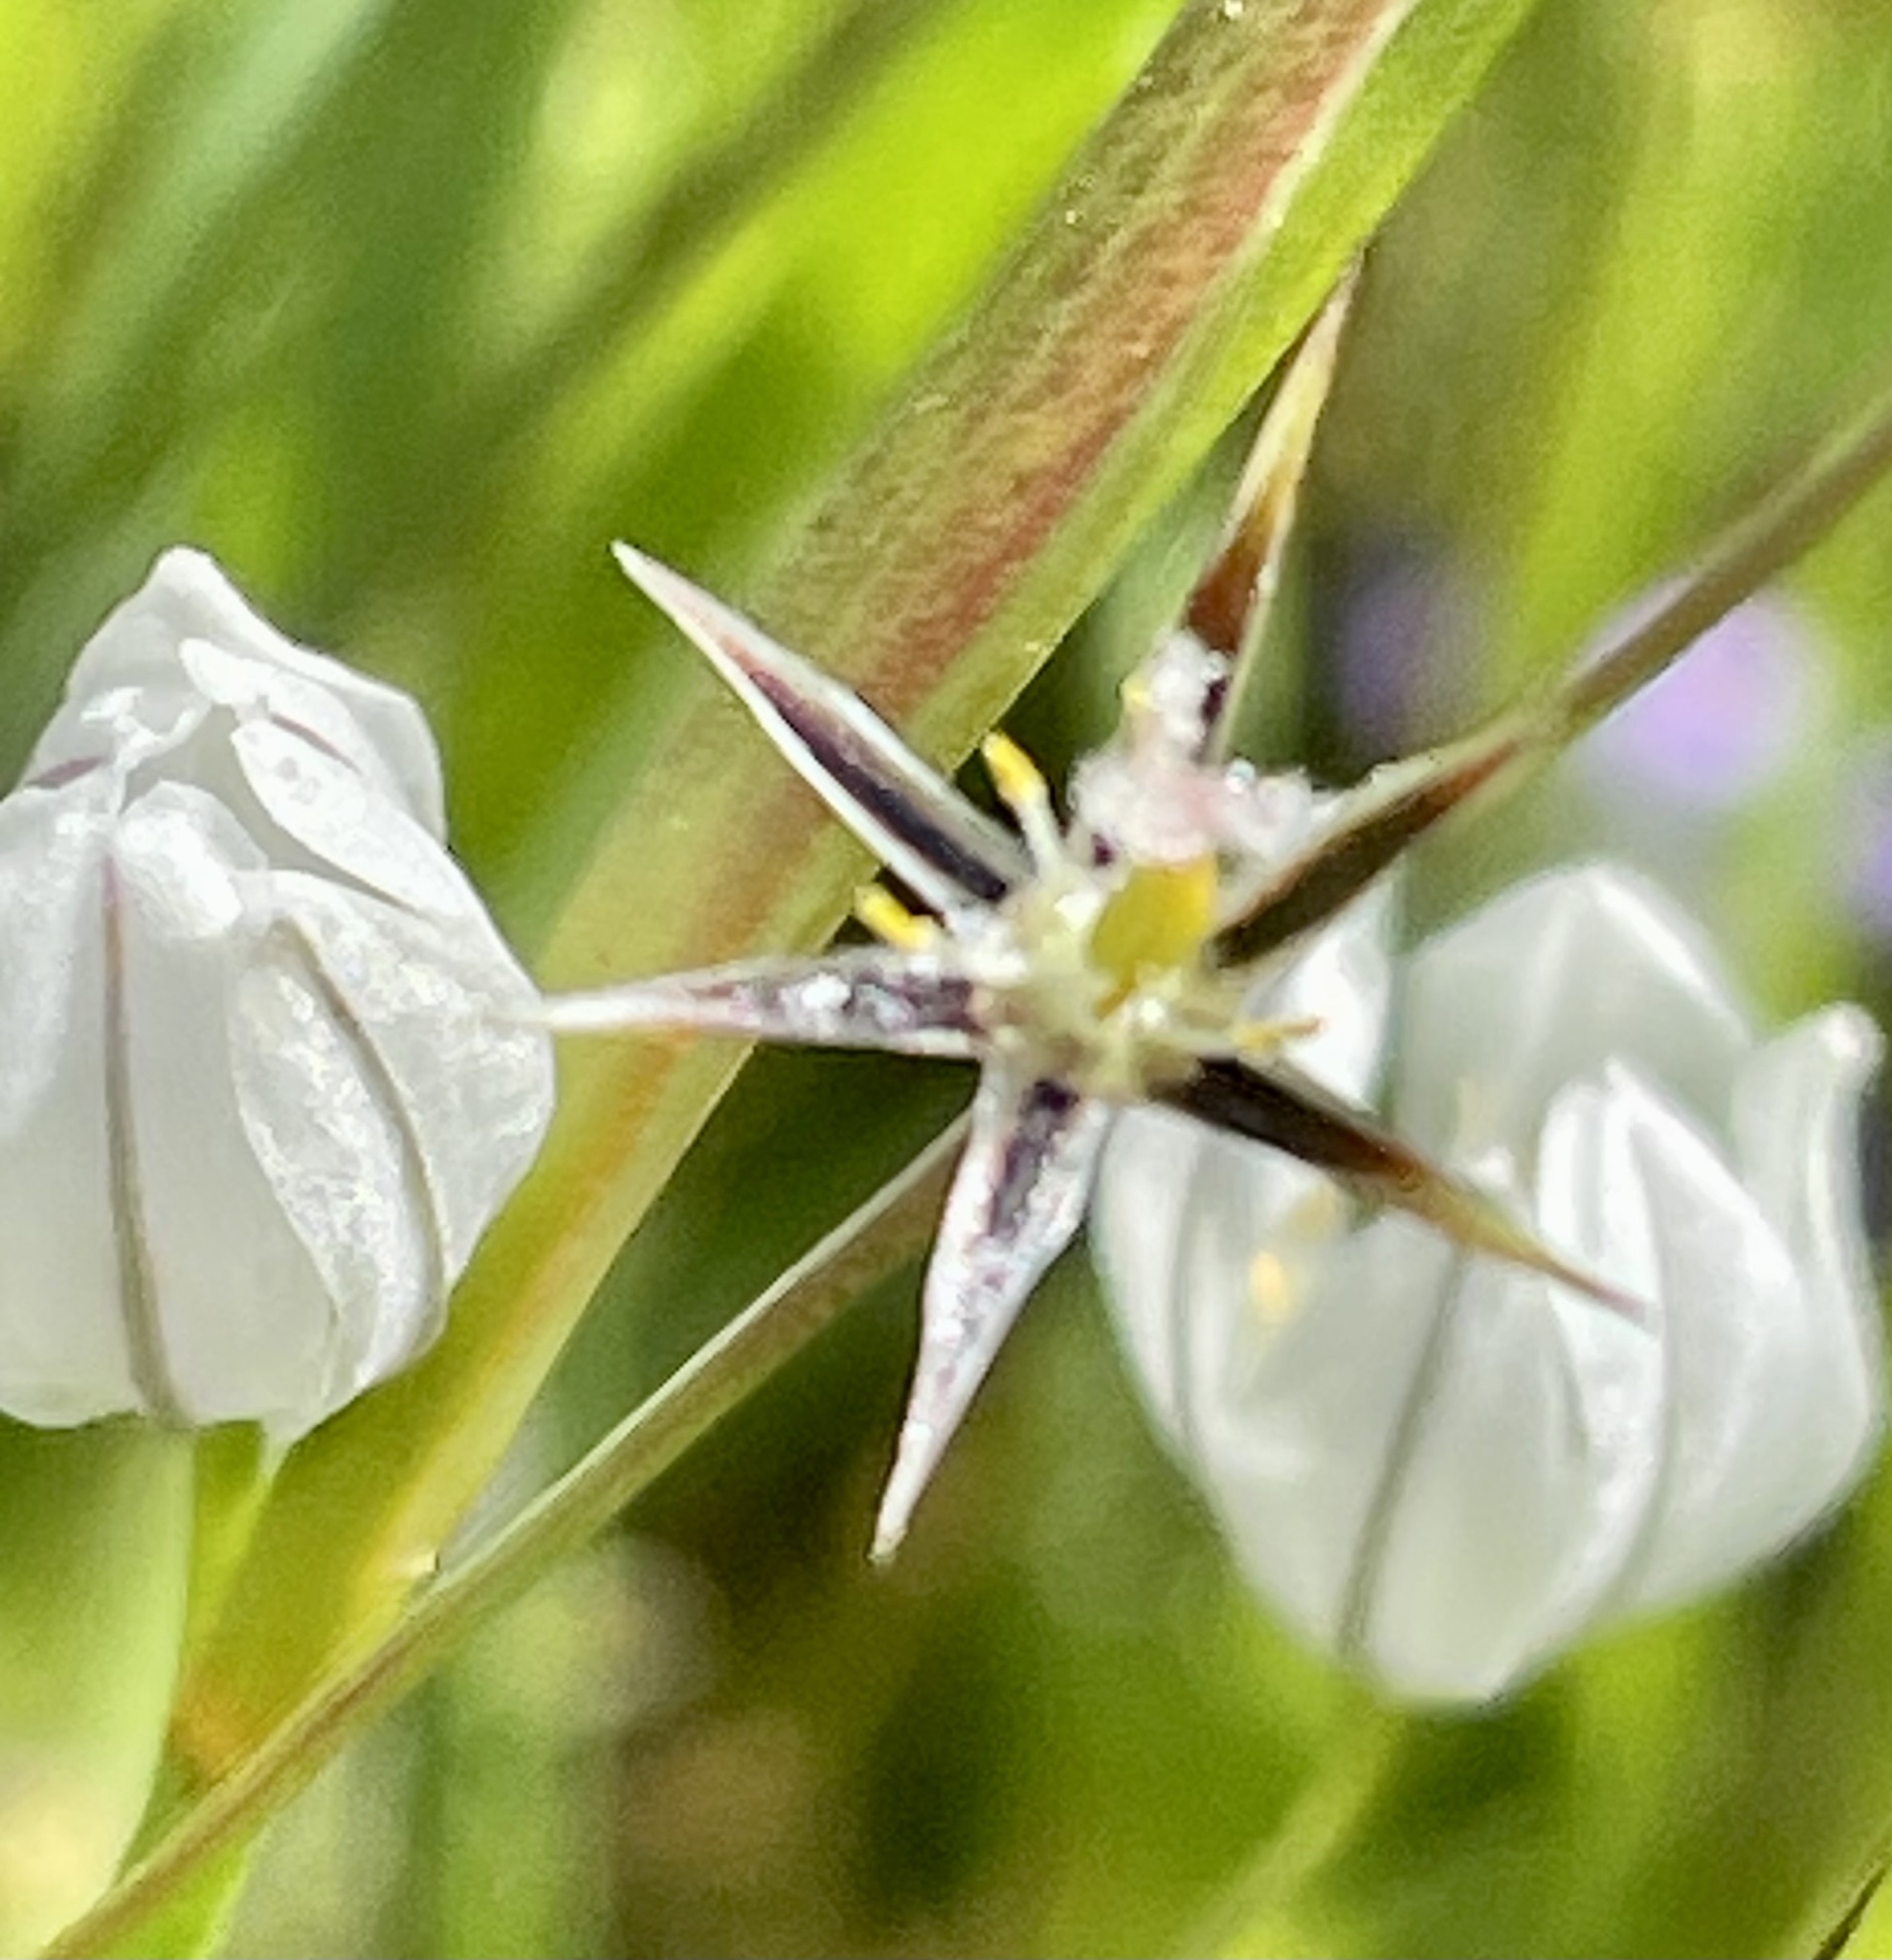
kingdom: Plantae
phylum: Tracheophyta
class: Liliopsida
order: Asparagales
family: Asparagaceae
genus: Triteleia
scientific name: Triteleia hyacinthina
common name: White brodiaea
